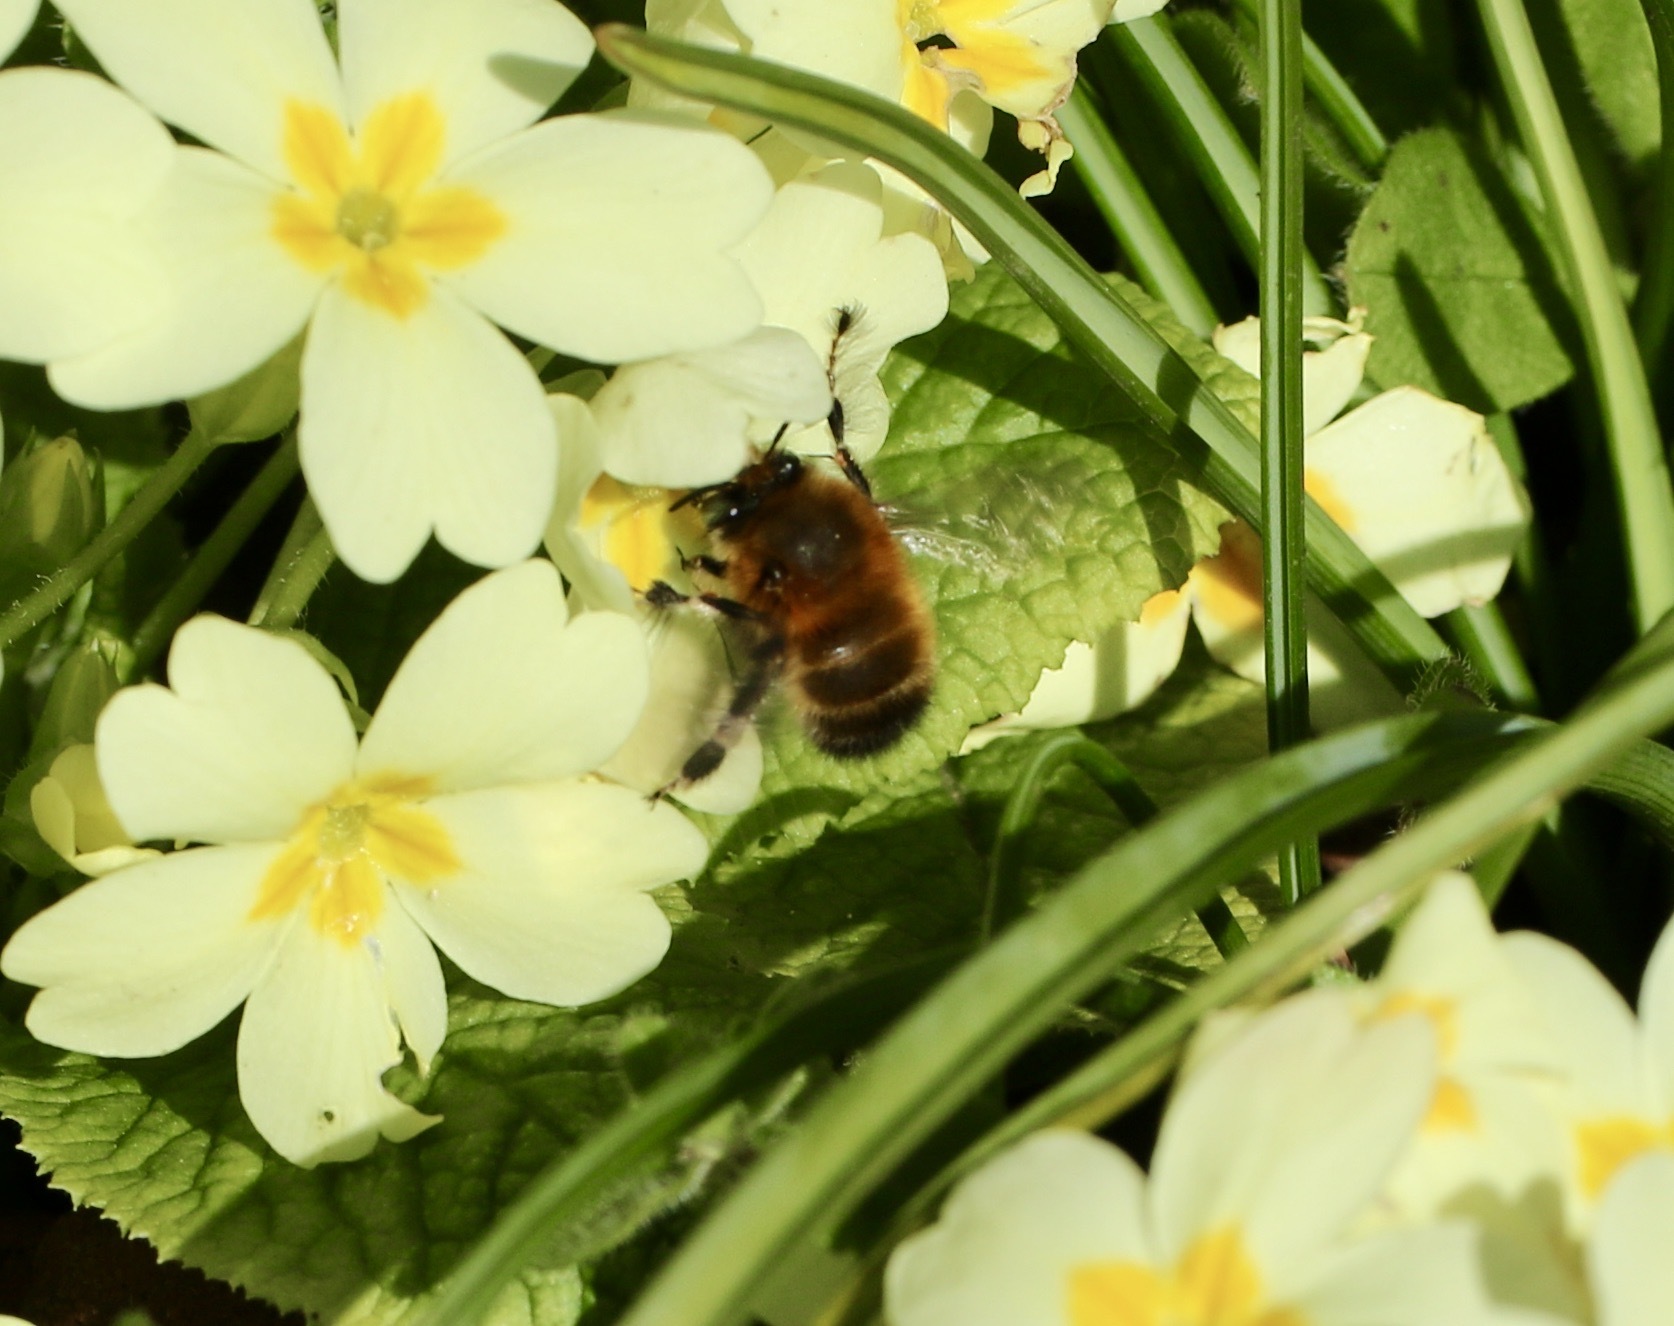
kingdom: Animalia
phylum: Arthropoda
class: Insecta
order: Hymenoptera
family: Apidae
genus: Anthophora
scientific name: Anthophora plumipes
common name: Hairy-footed flower bee
